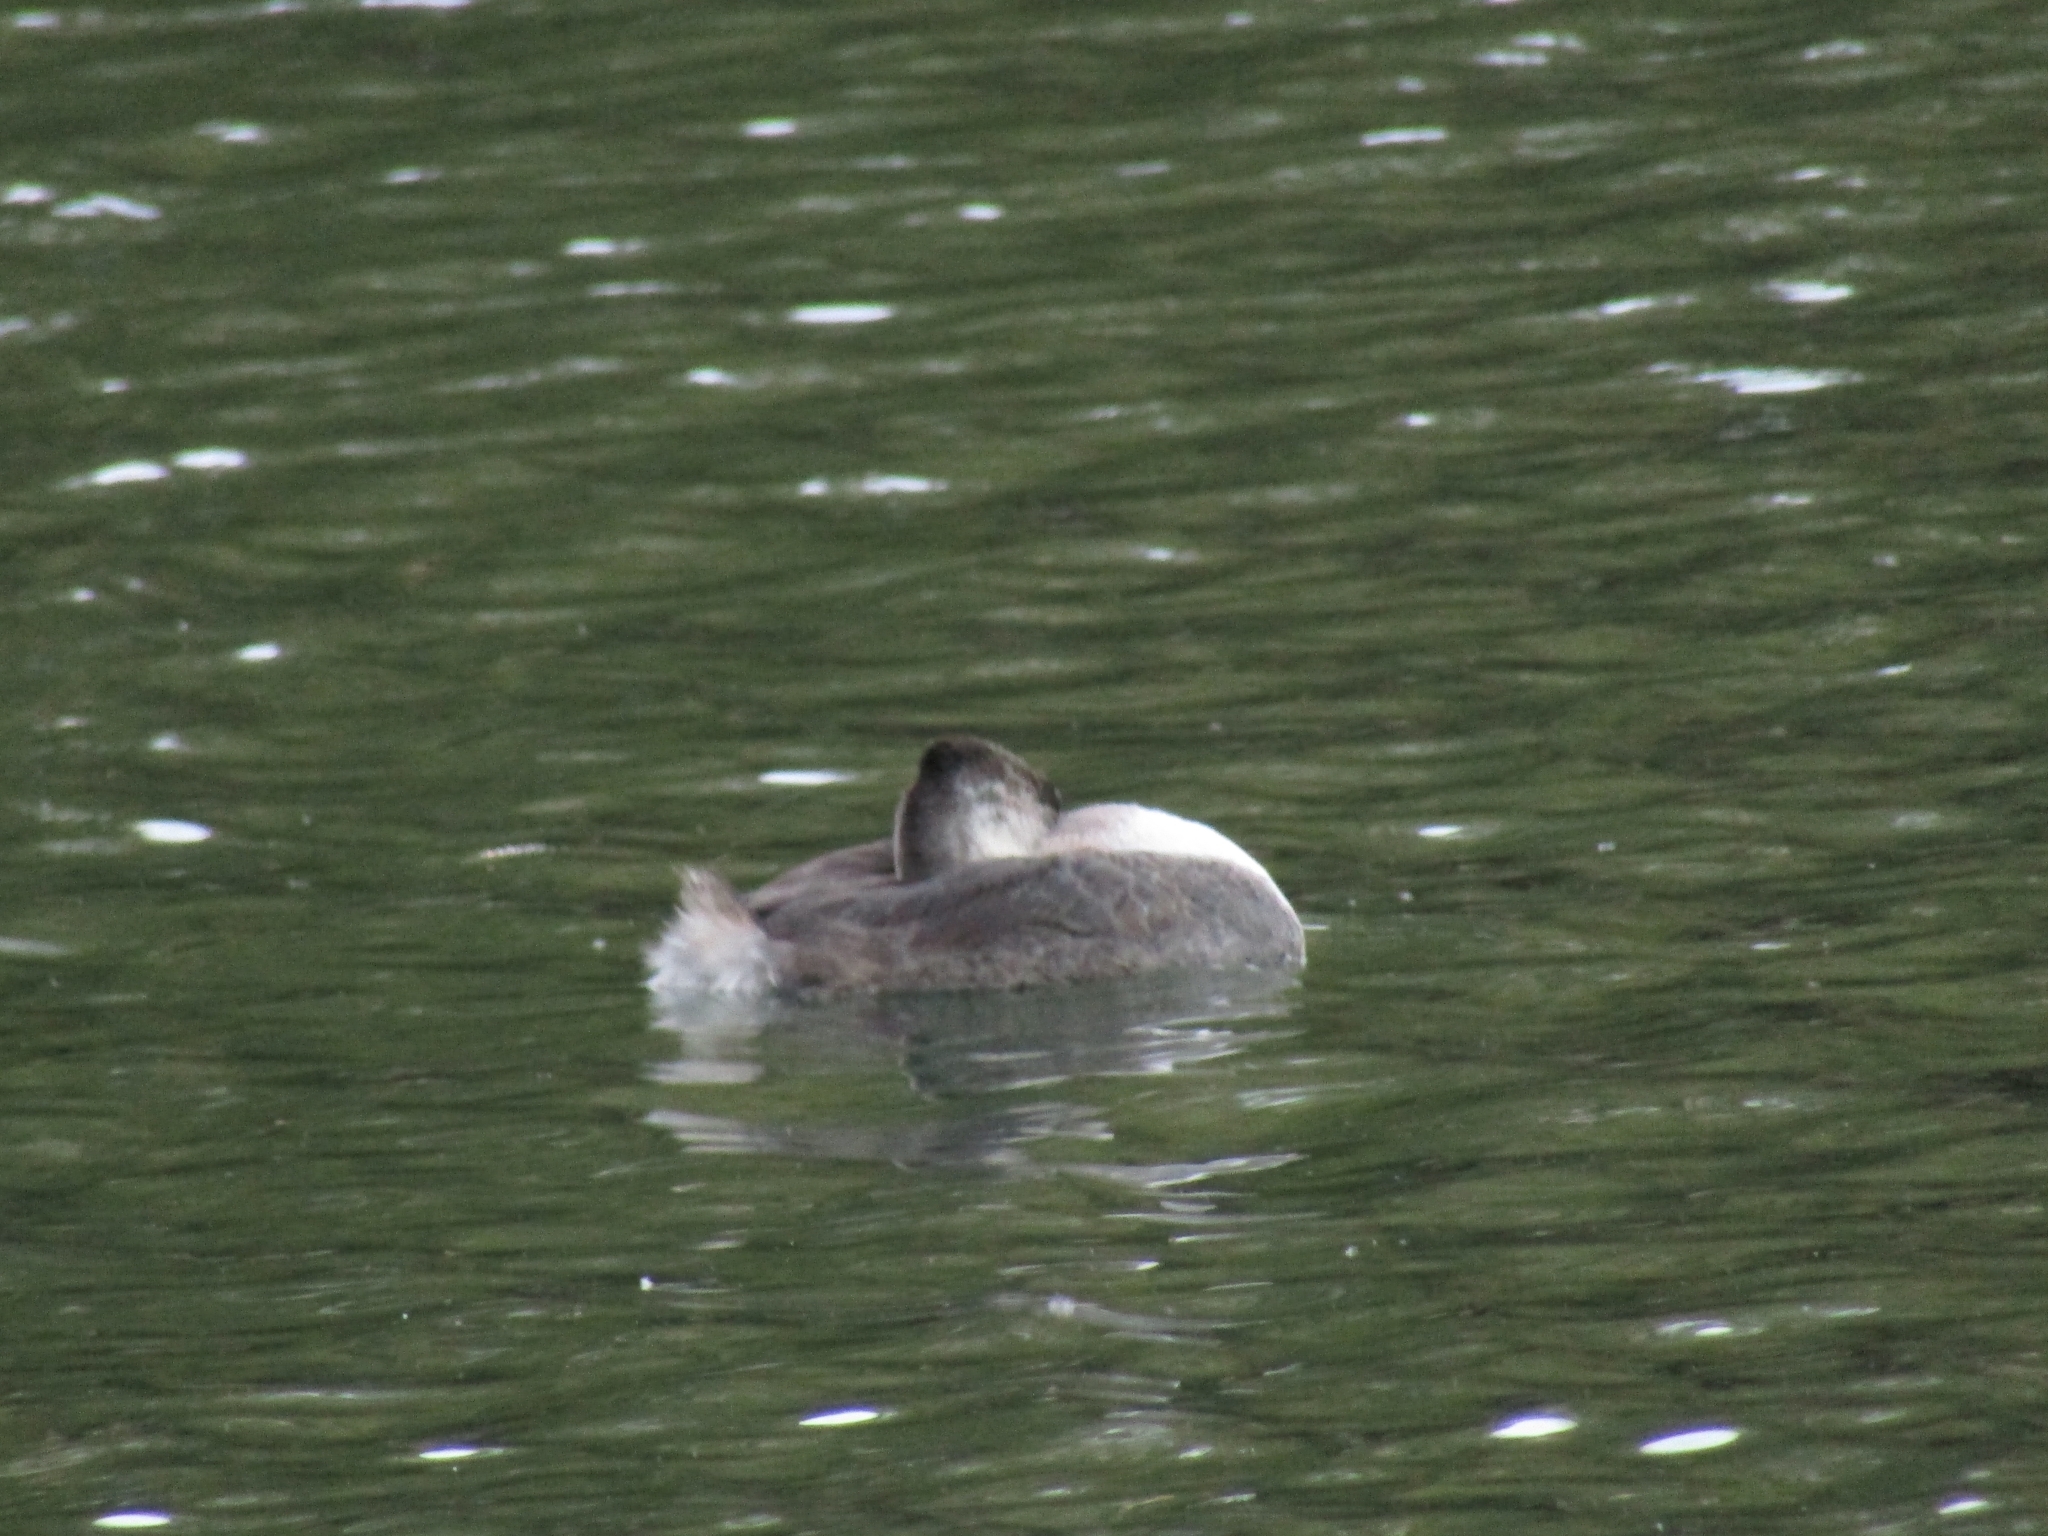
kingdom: Animalia
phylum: Chordata
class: Aves
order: Podicipediformes
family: Podicipedidae
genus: Podiceps
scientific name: Podiceps major
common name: Great grebe
